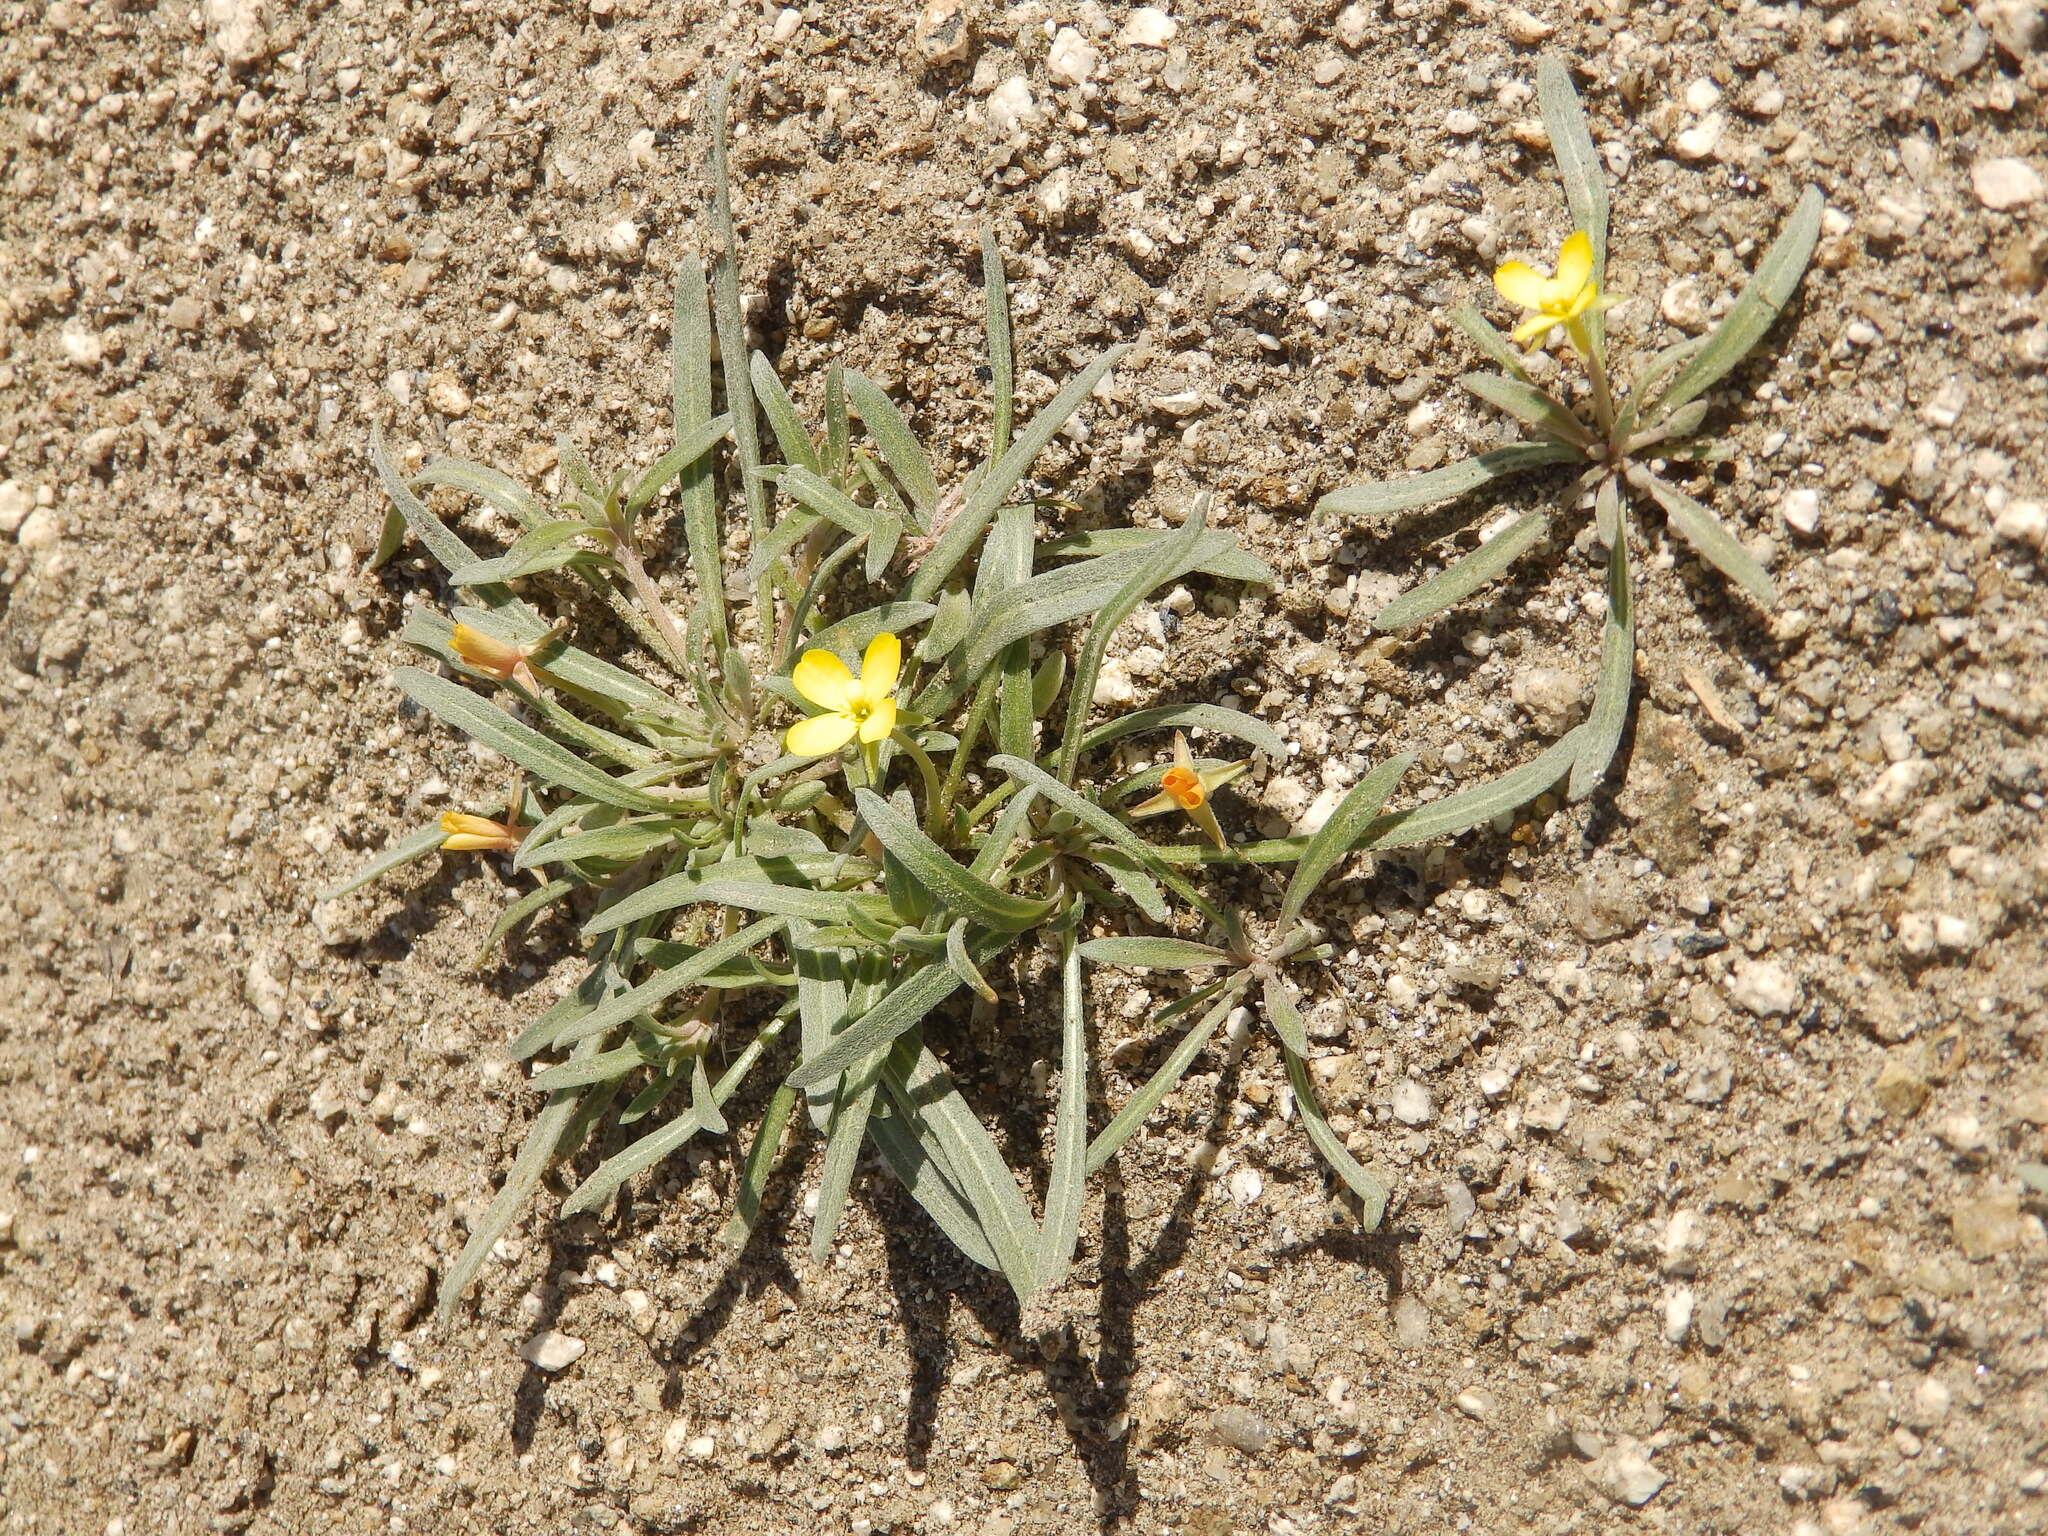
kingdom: Plantae
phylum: Tracheophyta
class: Magnoliopsida
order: Myrtales
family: Onagraceae
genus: Camissoniopsis
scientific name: Camissoniopsis pallida
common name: Paleyellow suncup
